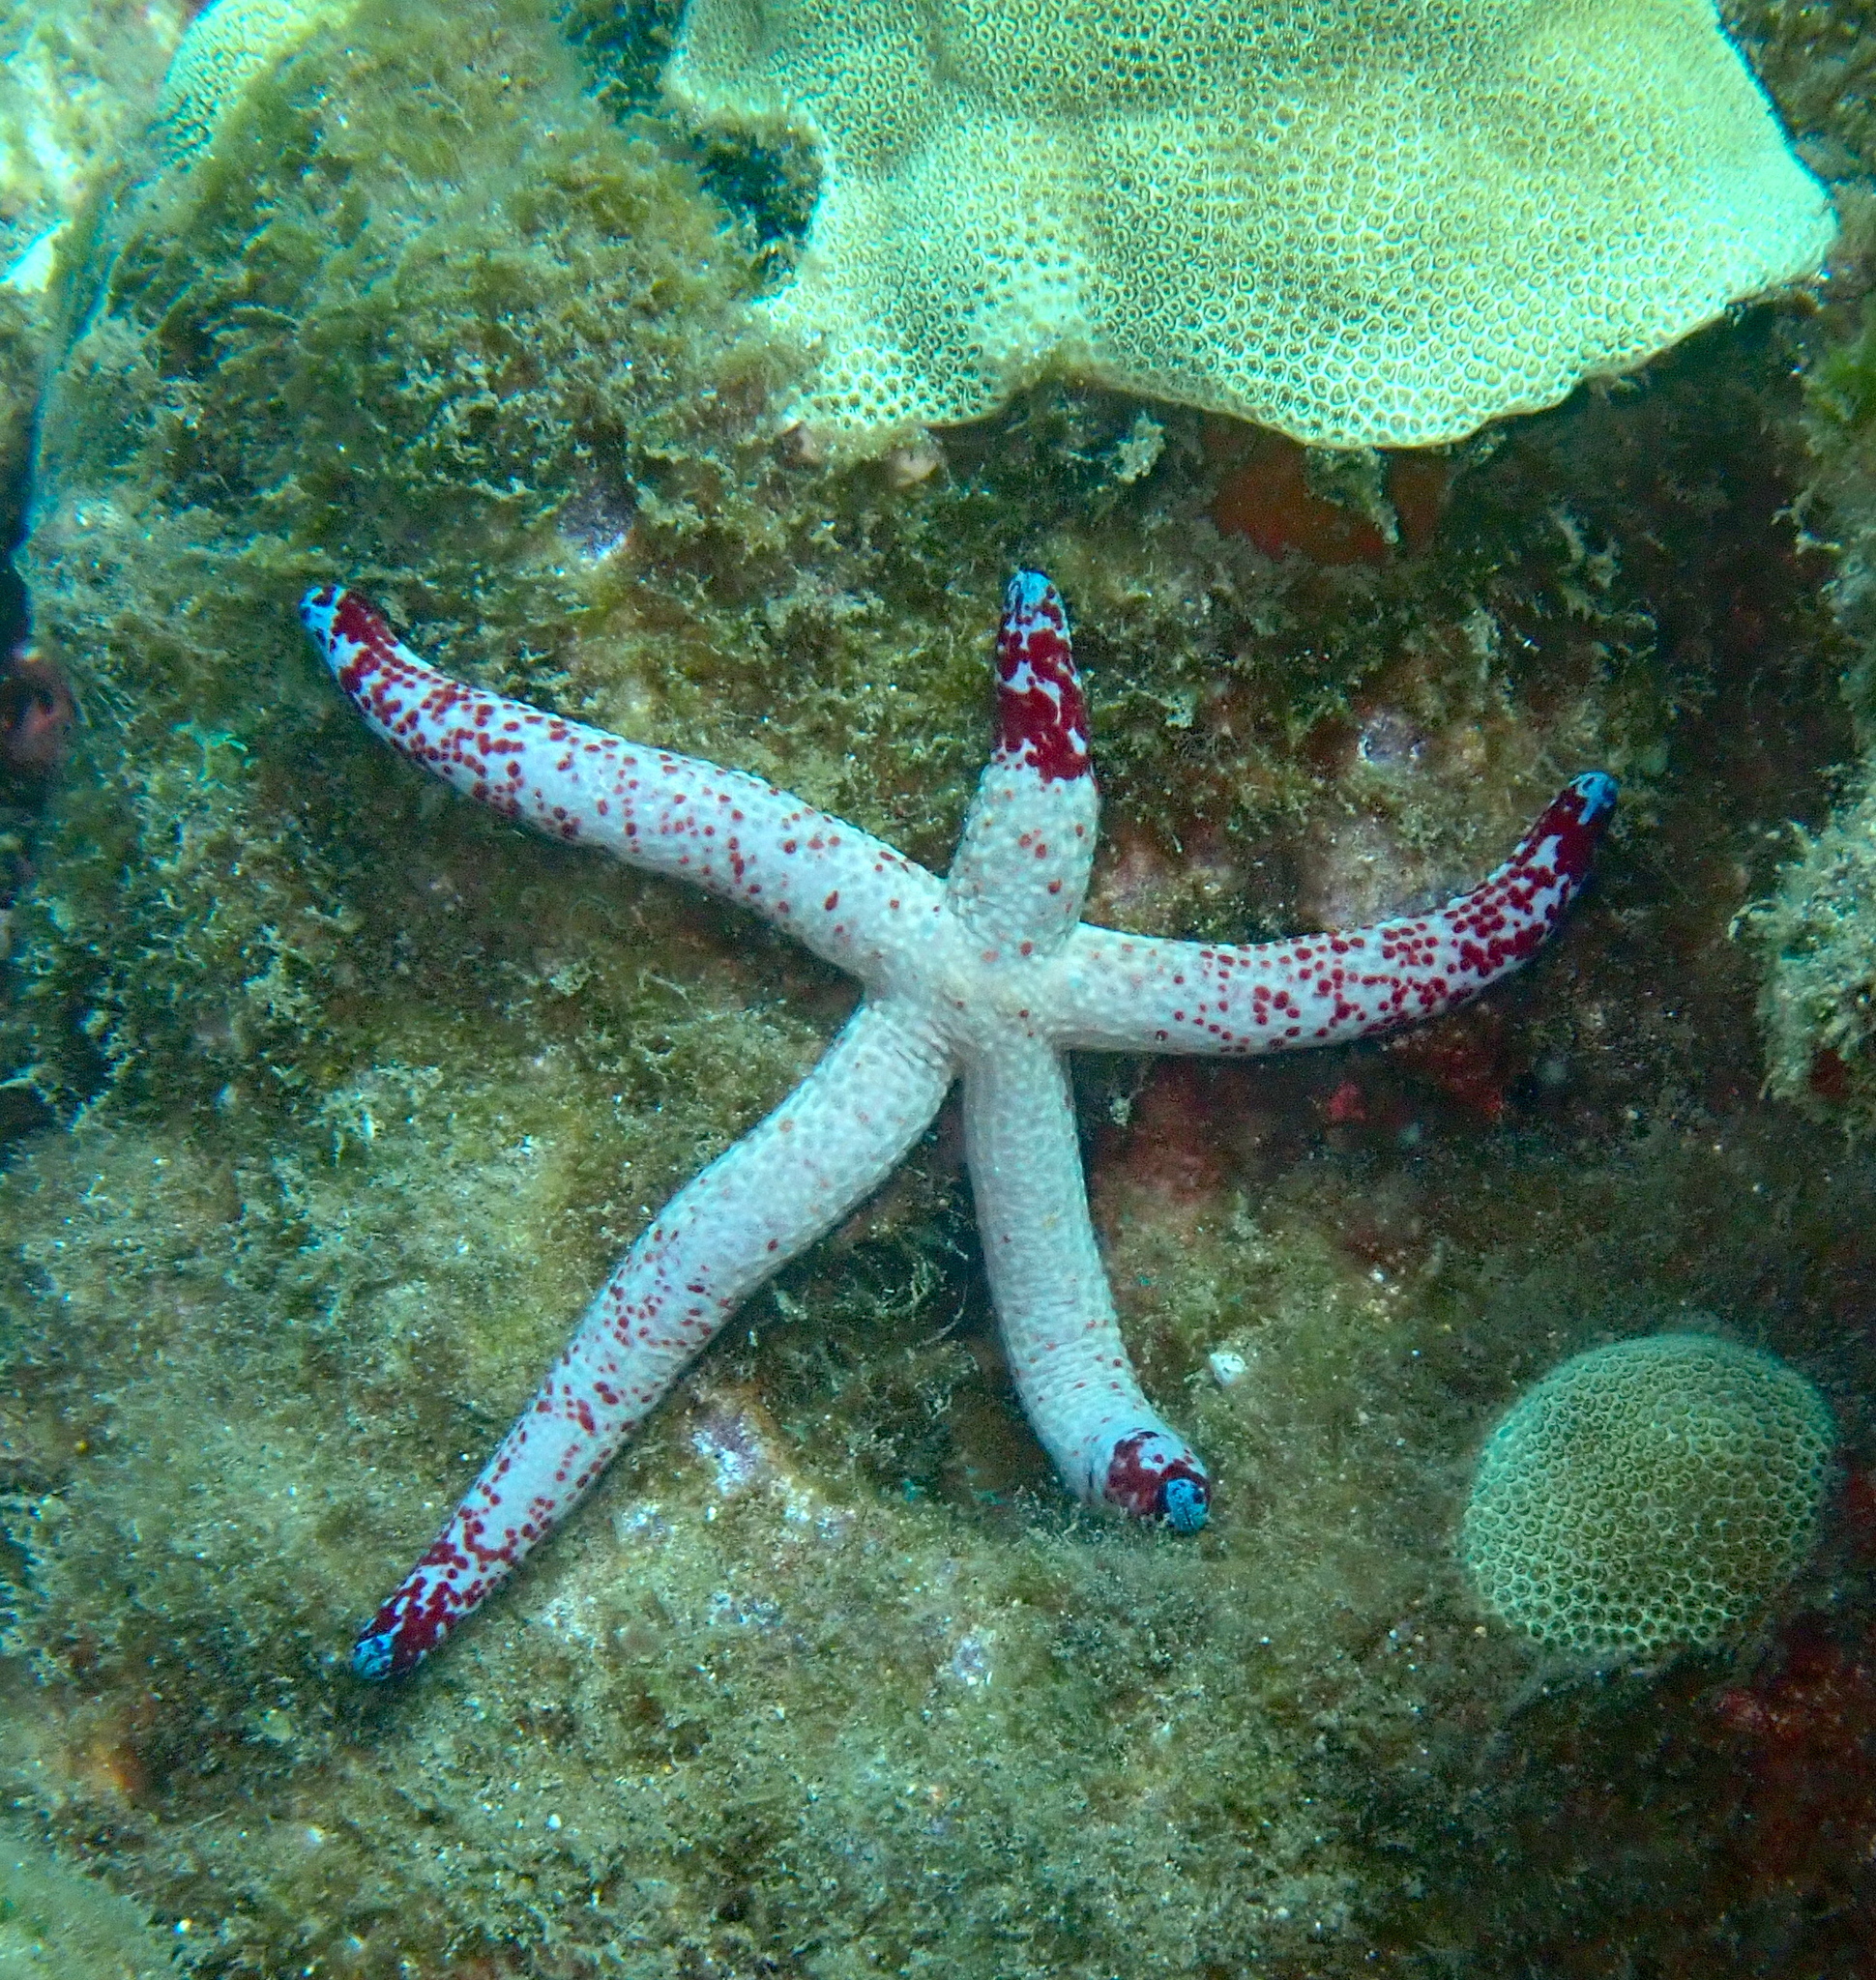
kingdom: Animalia
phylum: Echinodermata
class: Asteroidea
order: Valvatida
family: Ophidiasteridae
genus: Linckia
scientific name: Linckia multifora
